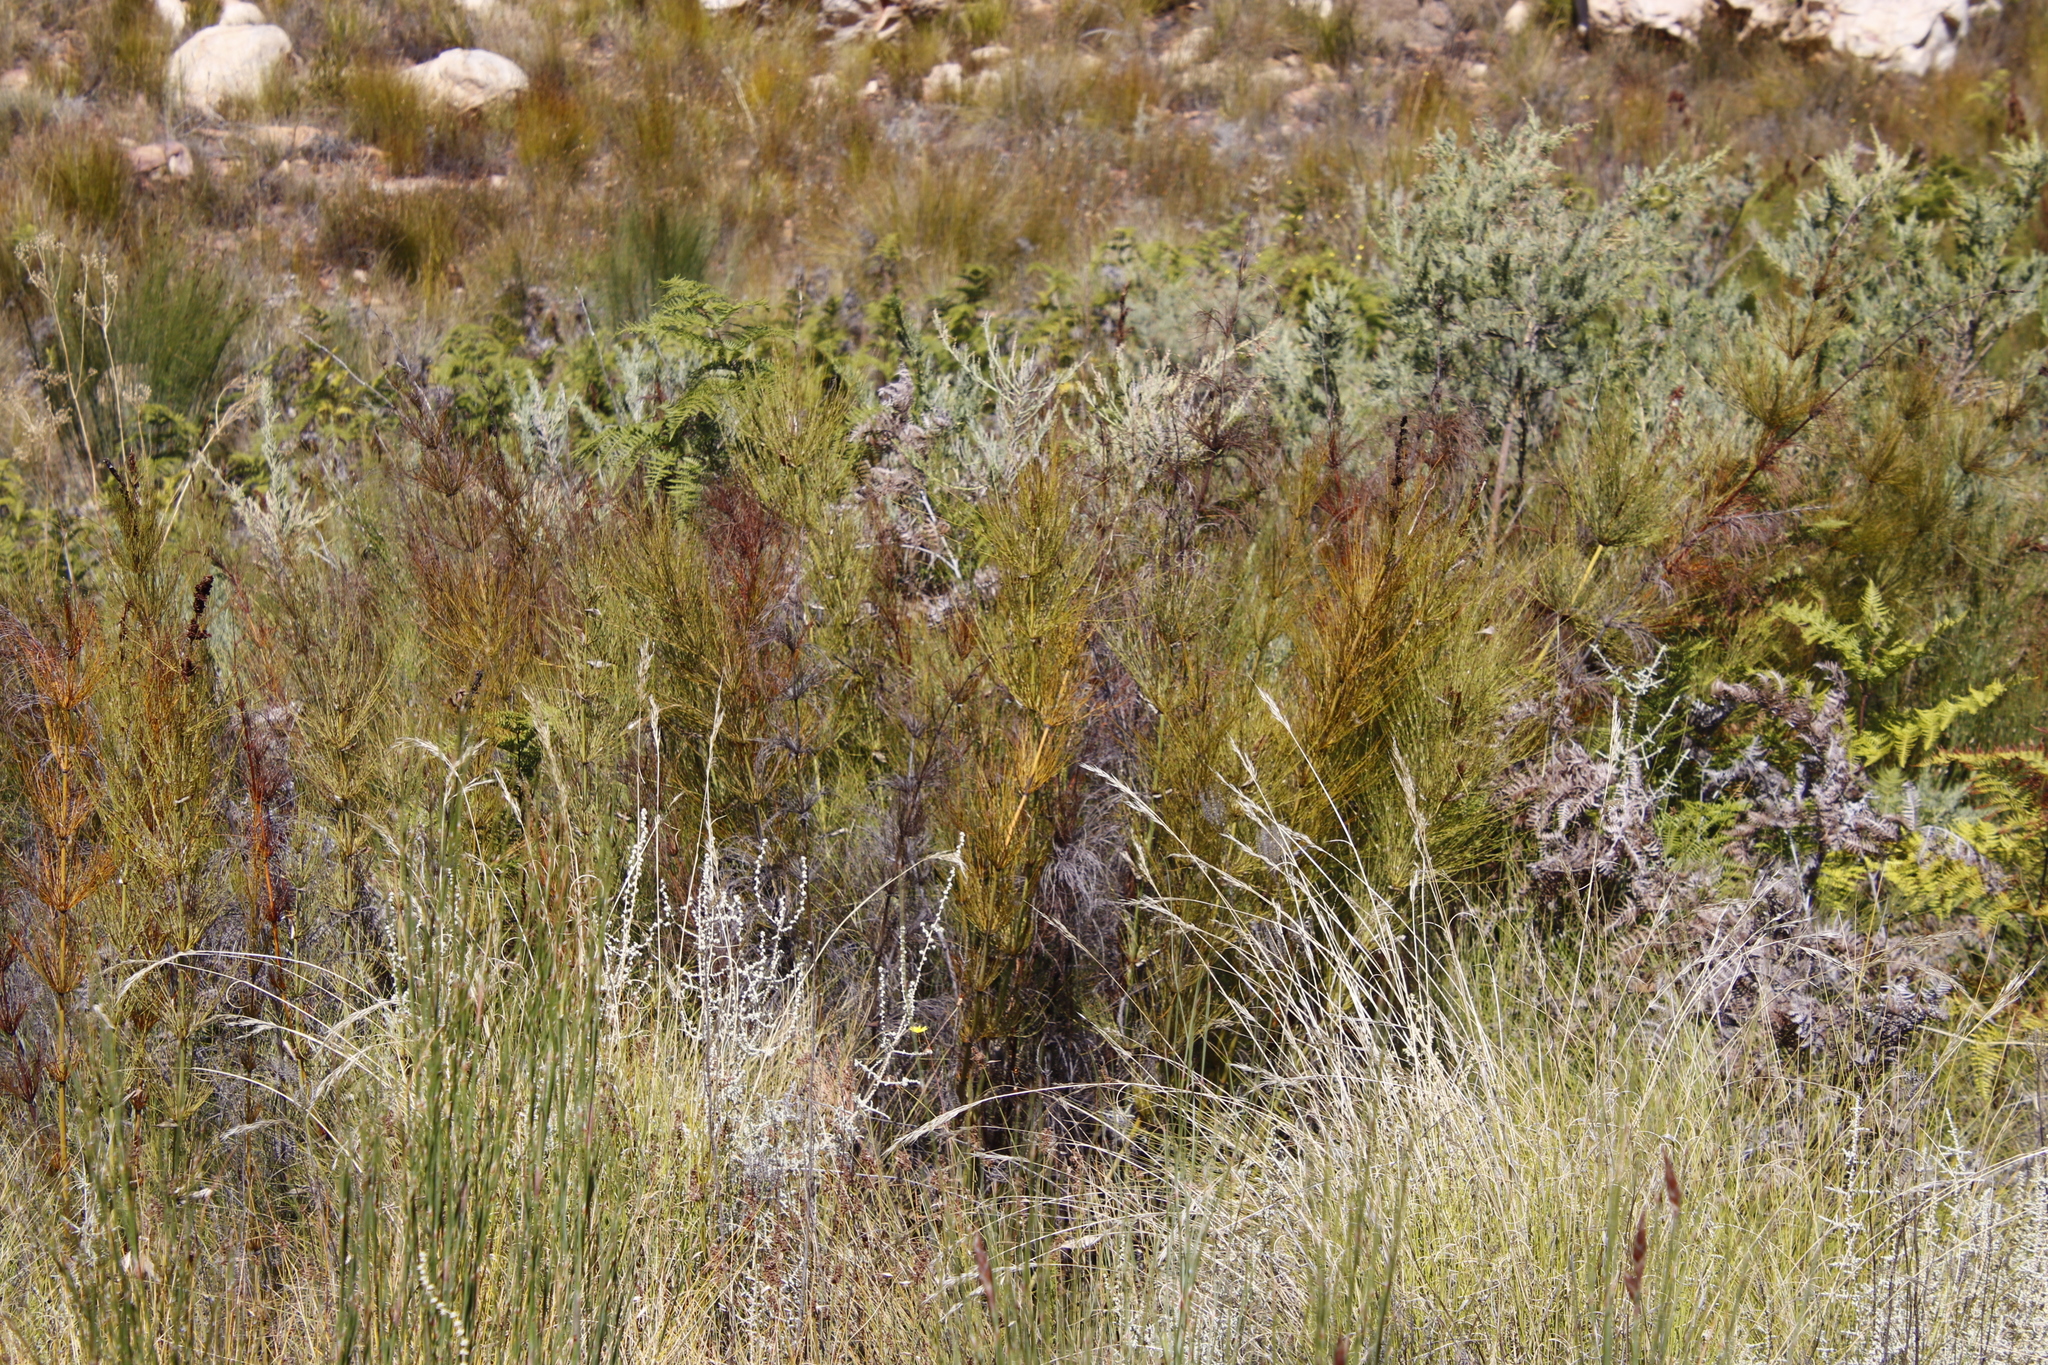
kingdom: Plantae
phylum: Tracheophyta
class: Liliopsida
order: Poales
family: Restionaceae
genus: Elegia
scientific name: Elegia capensis
